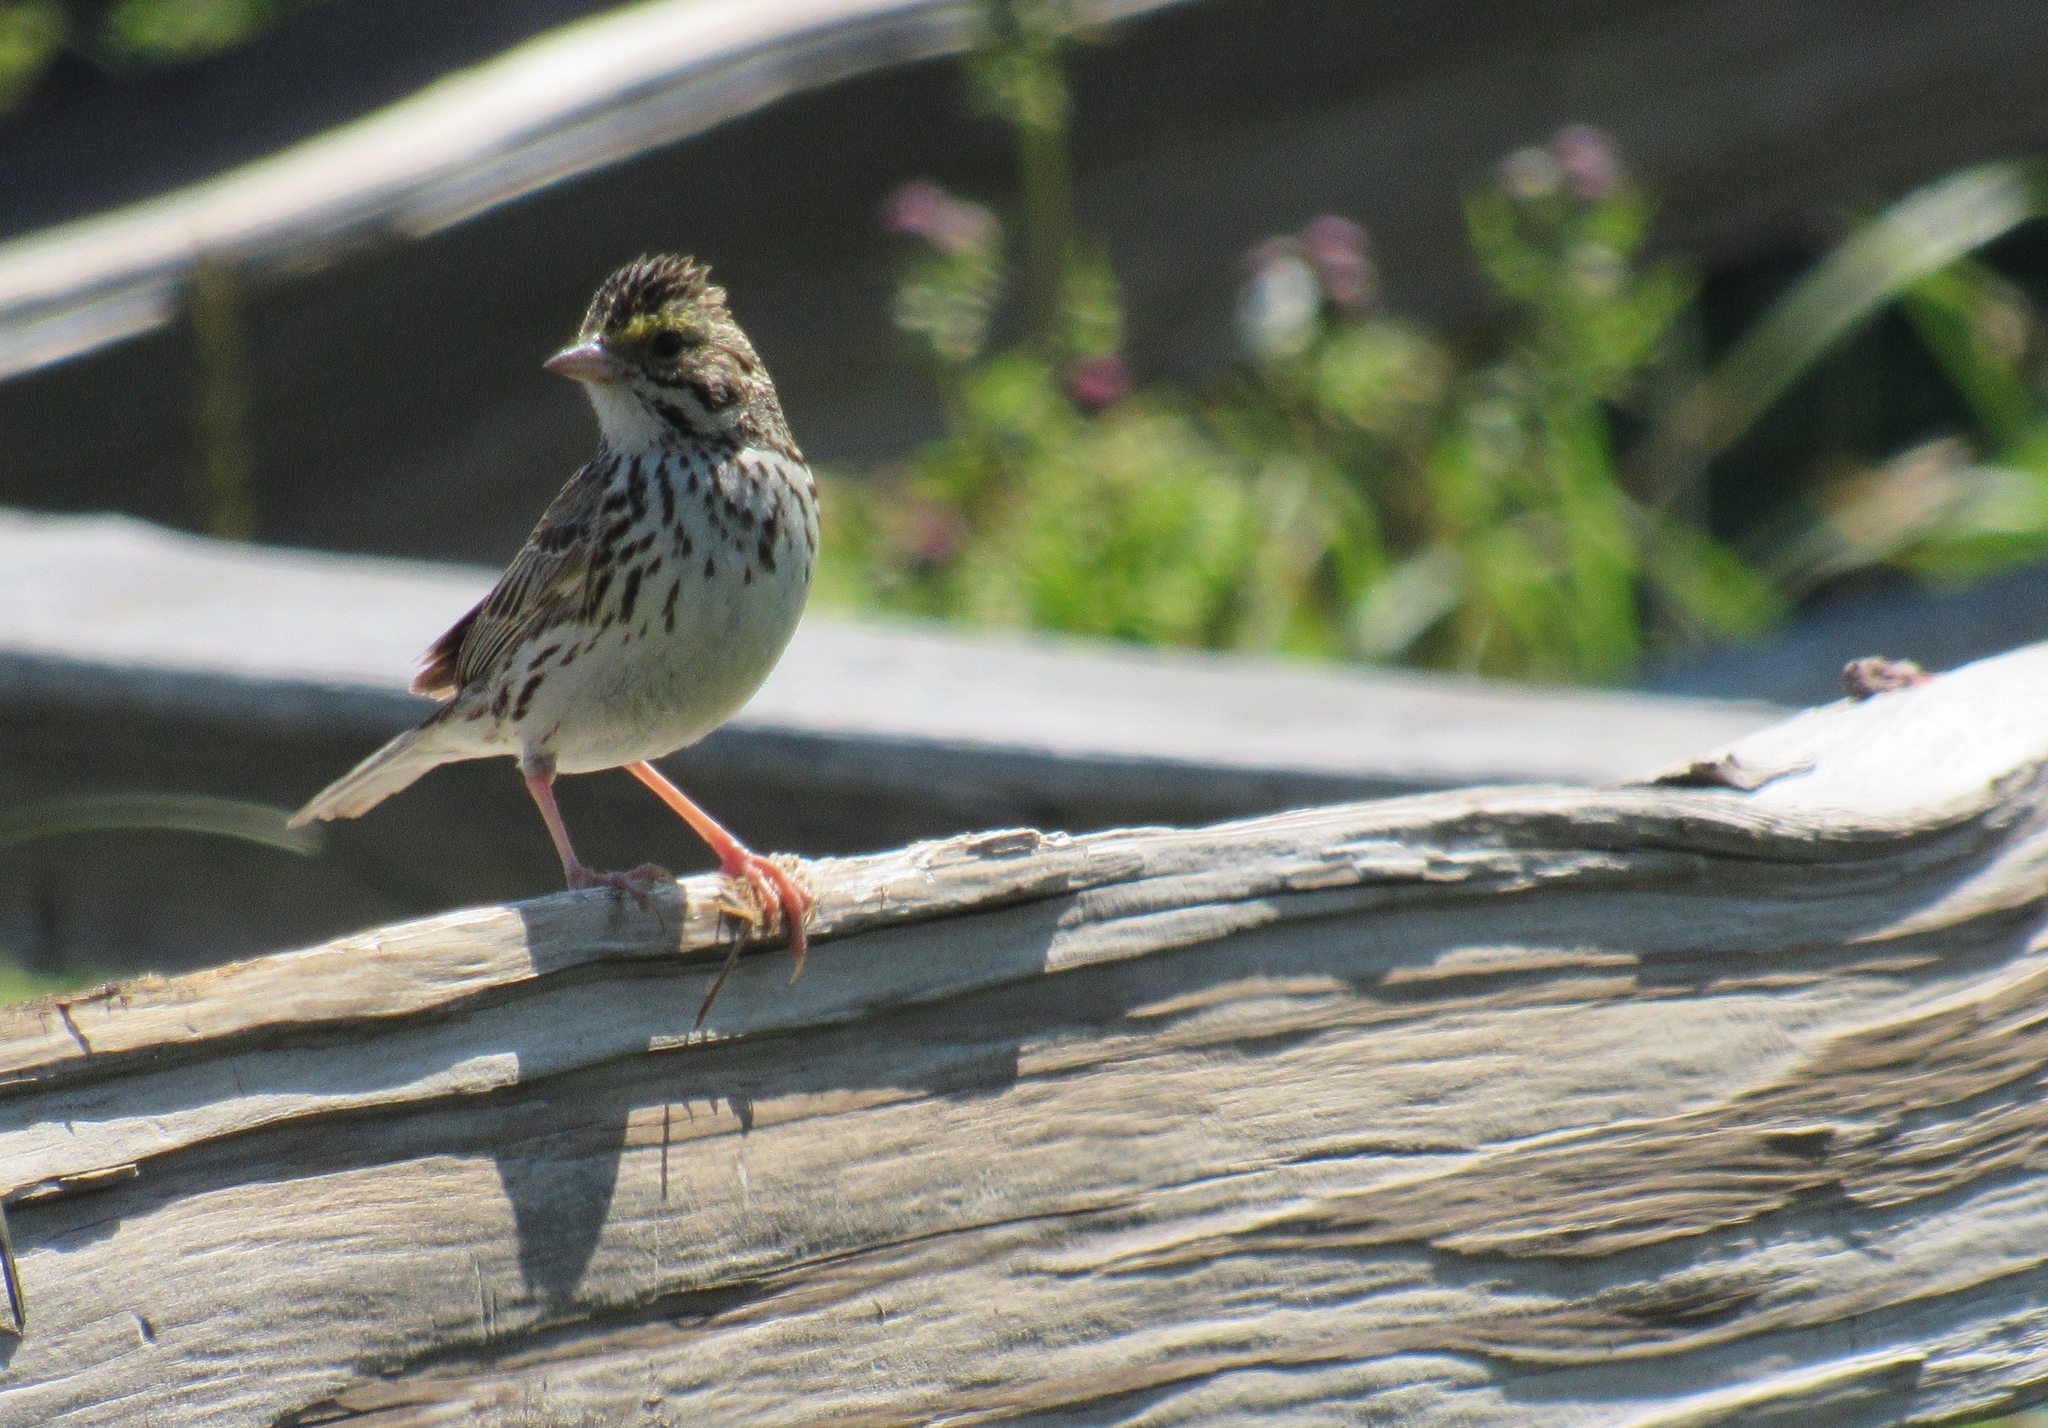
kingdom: Animalia
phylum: Chordata
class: Aves
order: Passeriformes
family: Passerellidae
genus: Passerculus
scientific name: Passerculus sandwichensis
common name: Savannah sparrow
